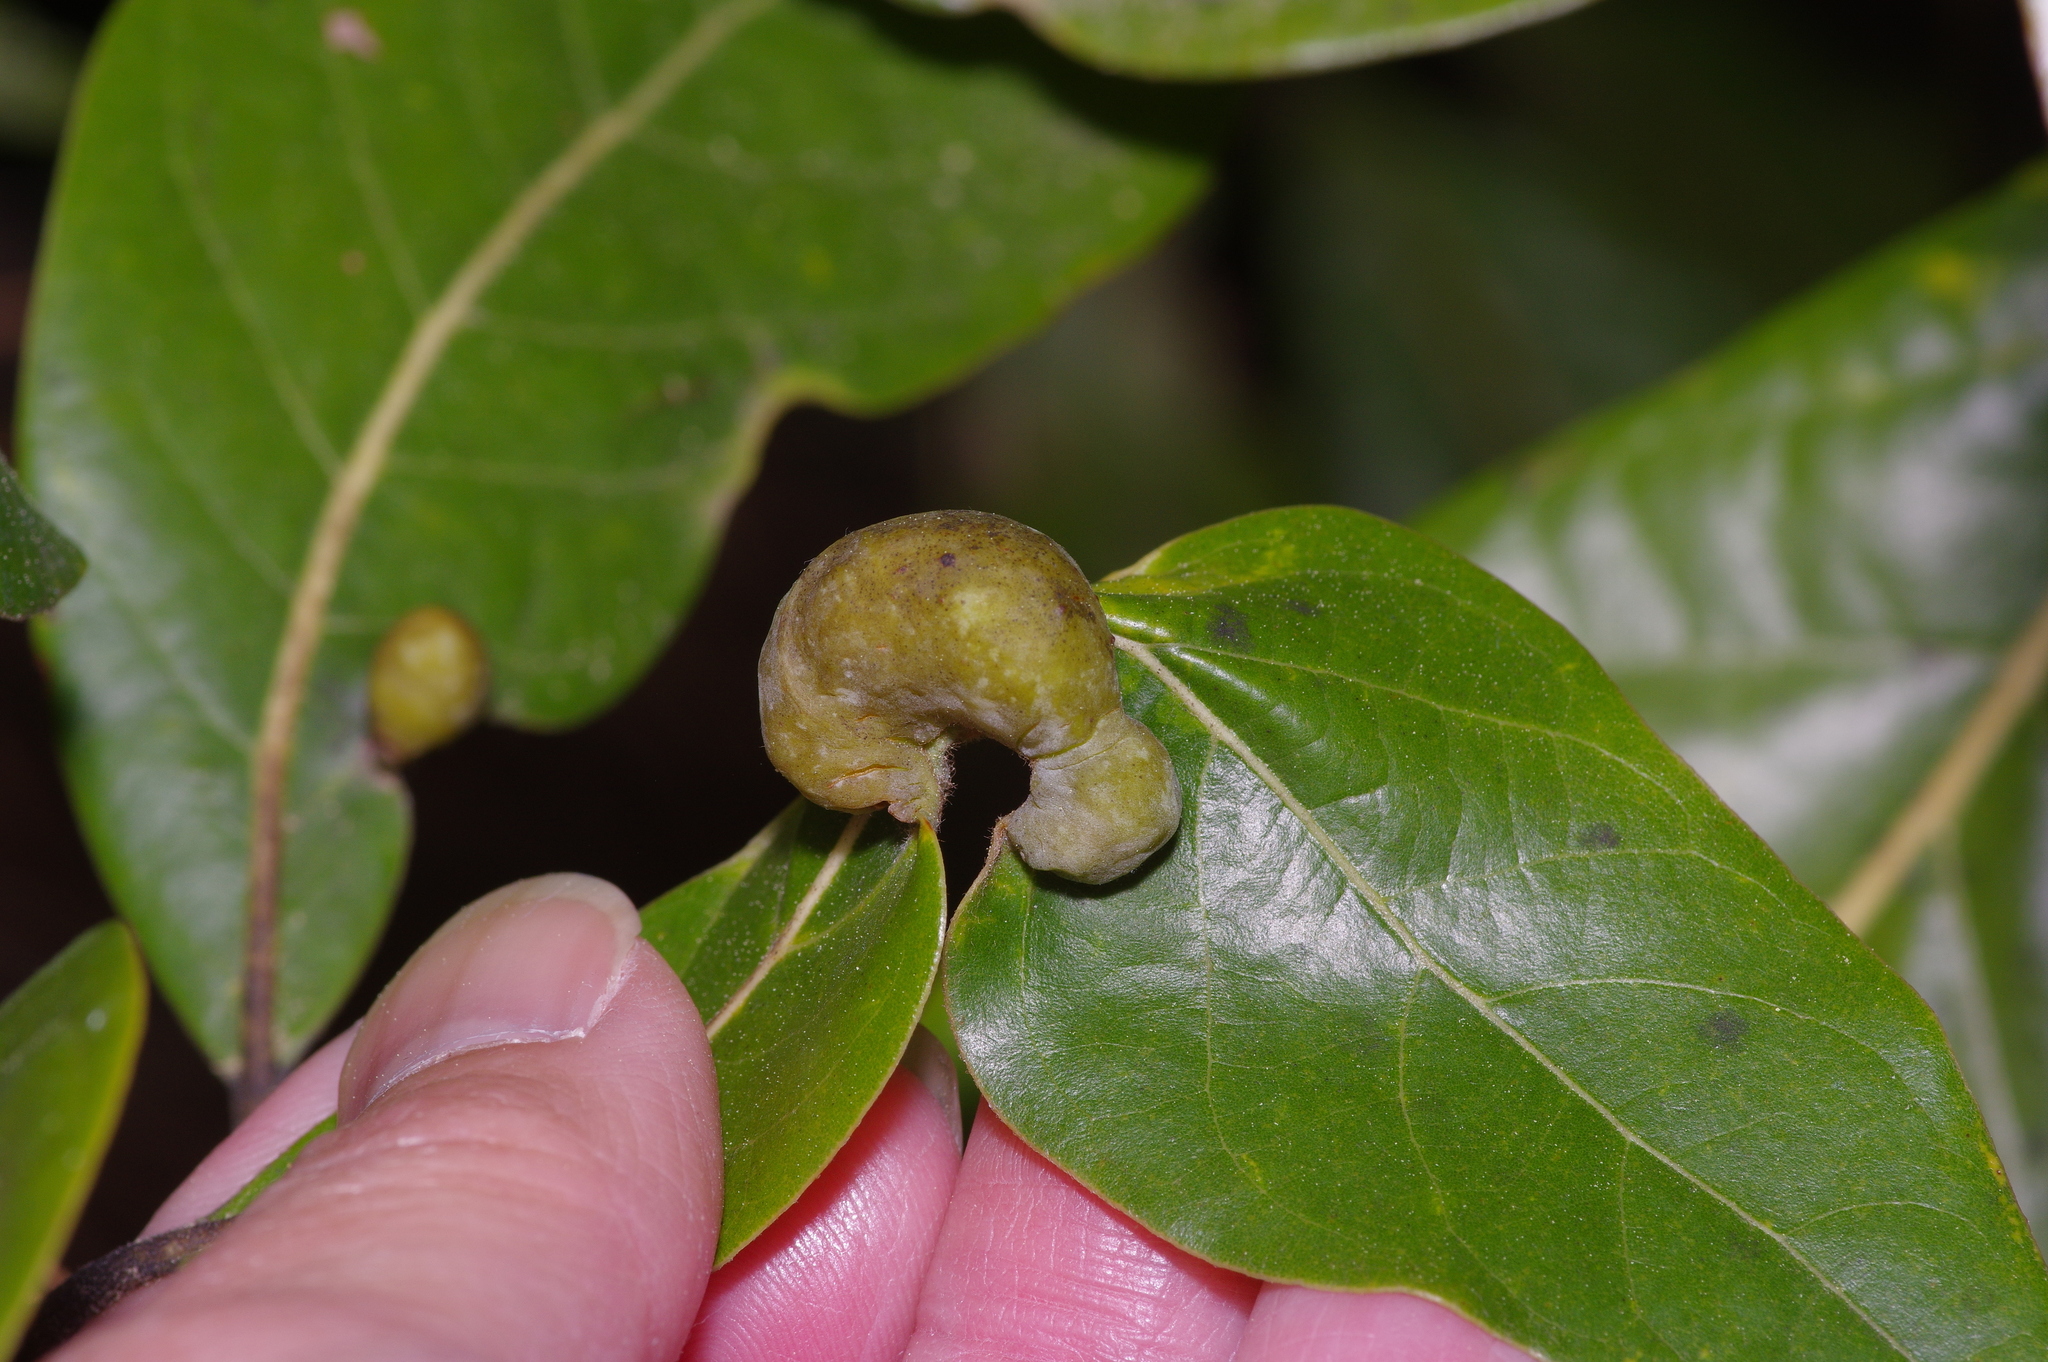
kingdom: Animalia
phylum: Arthropoda
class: Insecta
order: Hemiptera
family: Triozidae
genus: Trioza
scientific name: Trioza magnoliae
